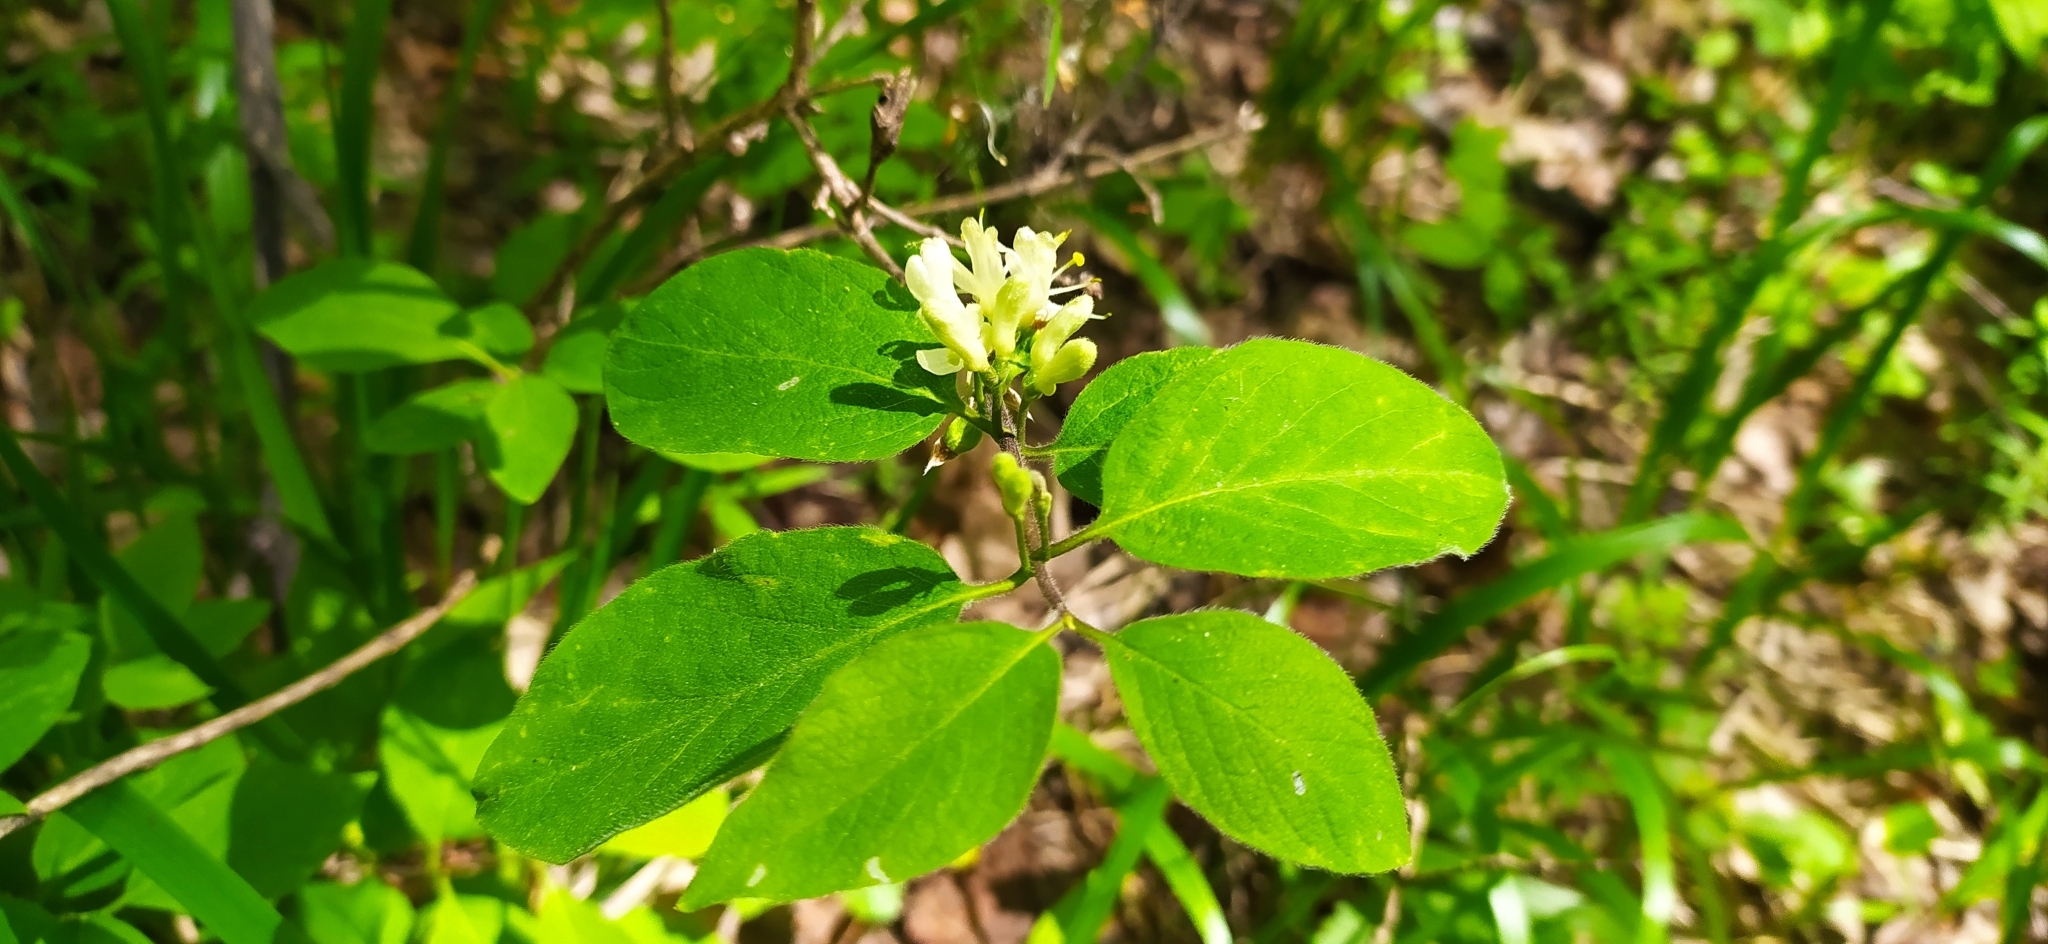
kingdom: Plantae
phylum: Tracheophyta
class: Magnoliopsida
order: Dipsacales
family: Caprifoliaceae
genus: Lonicera
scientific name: Lonicera xylosteum
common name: Fly honeysuckle
